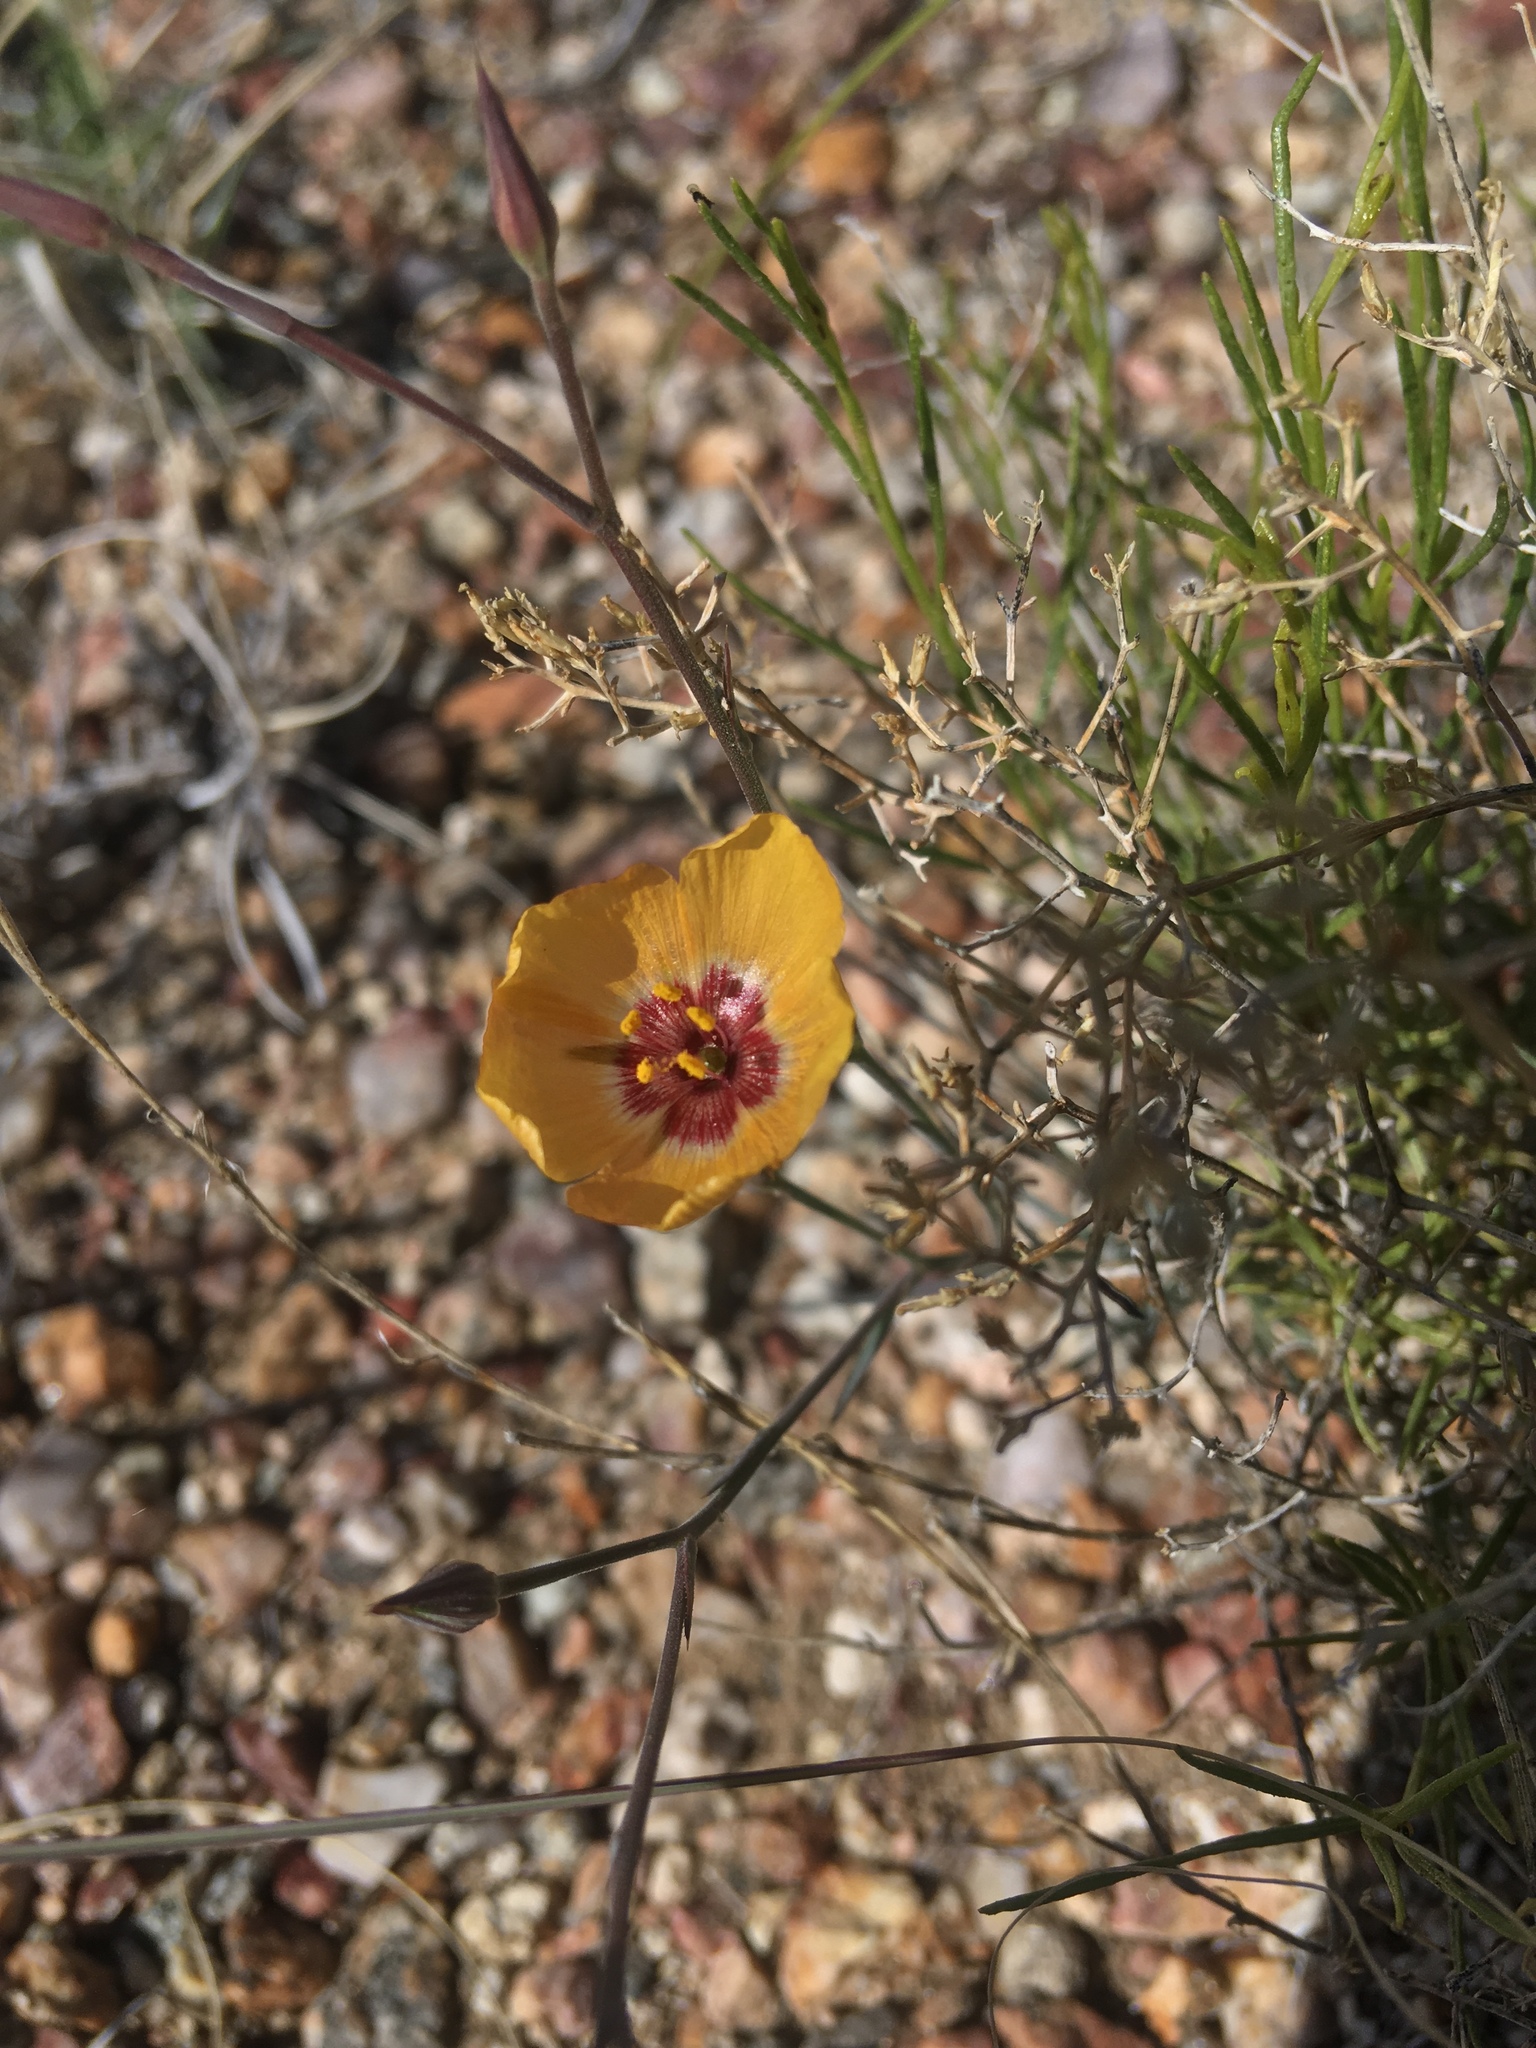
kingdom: Plantae
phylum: Tracheophyta
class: Magnoliopsida
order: Malpighiales
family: Linaceae
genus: Linum
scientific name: Linum puberulum
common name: Plains flax
